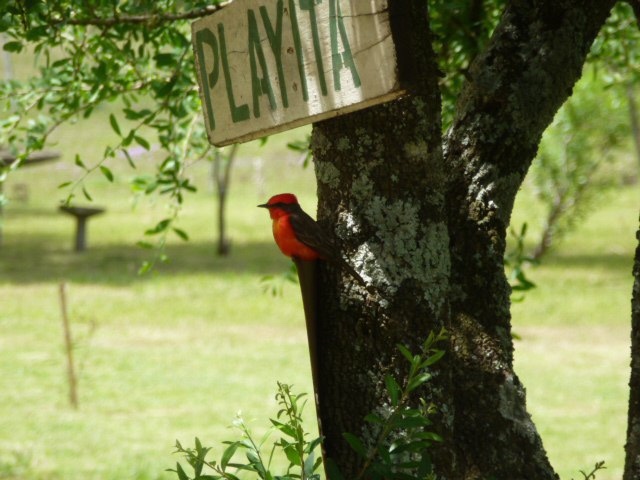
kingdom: Animalia
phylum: Chordata
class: Aves
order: Passeriformes
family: Tyrannidae
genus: Pyrocephalus
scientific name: Pyrocephalus rubinus
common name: Vermilion flycatcher
